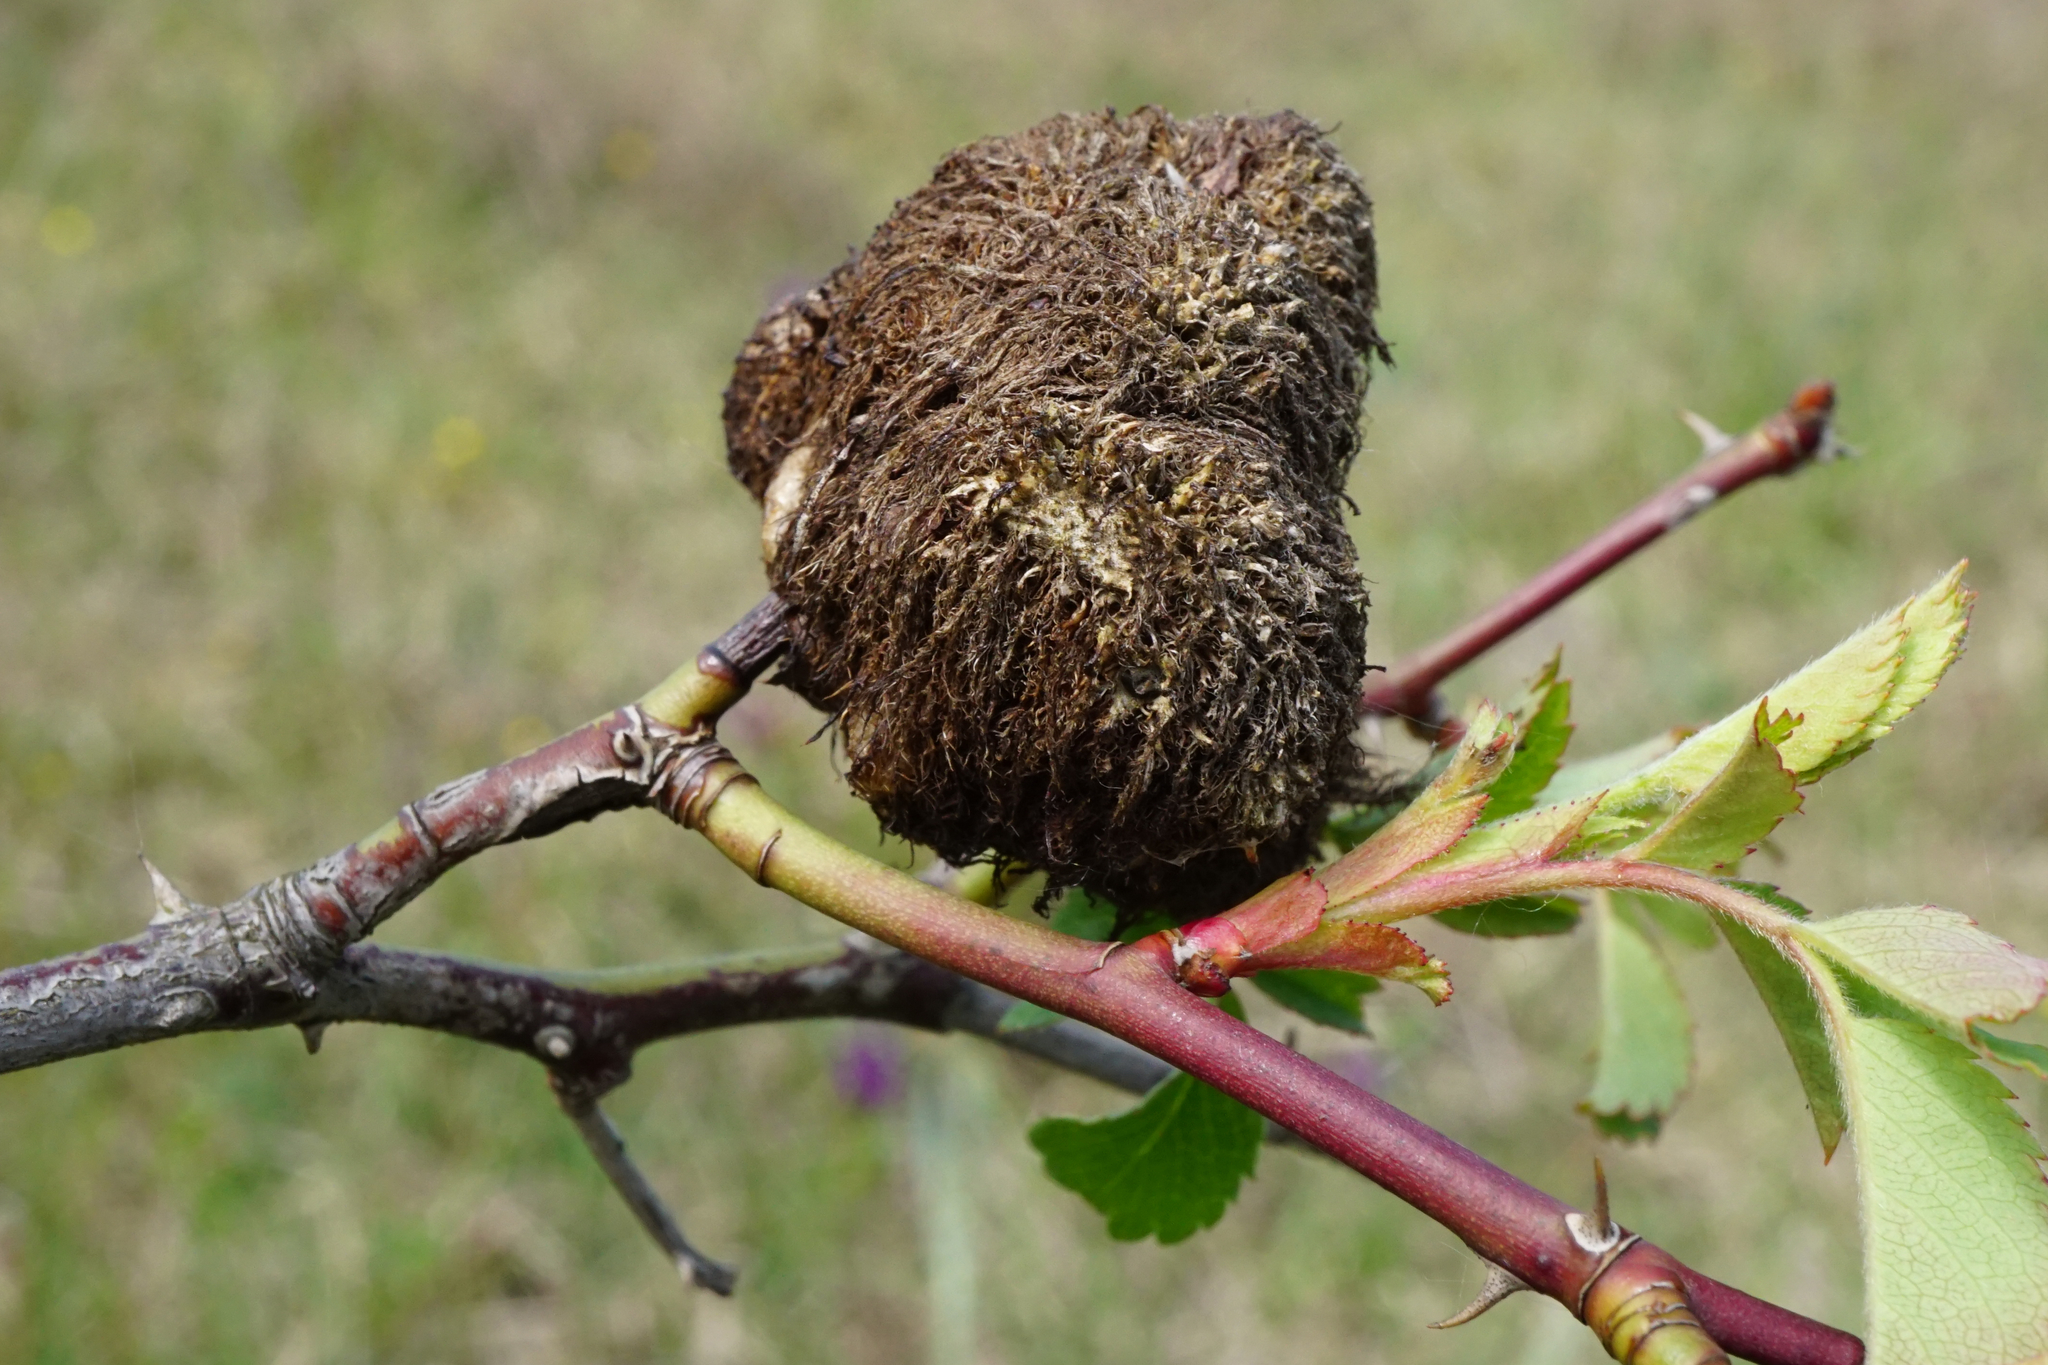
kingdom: Animalia
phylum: Arthropoda
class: Insecta
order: Hymenoptera
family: Cynipidae
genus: Diplolepis
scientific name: Diplolepis rosae
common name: Bedeguar gall
